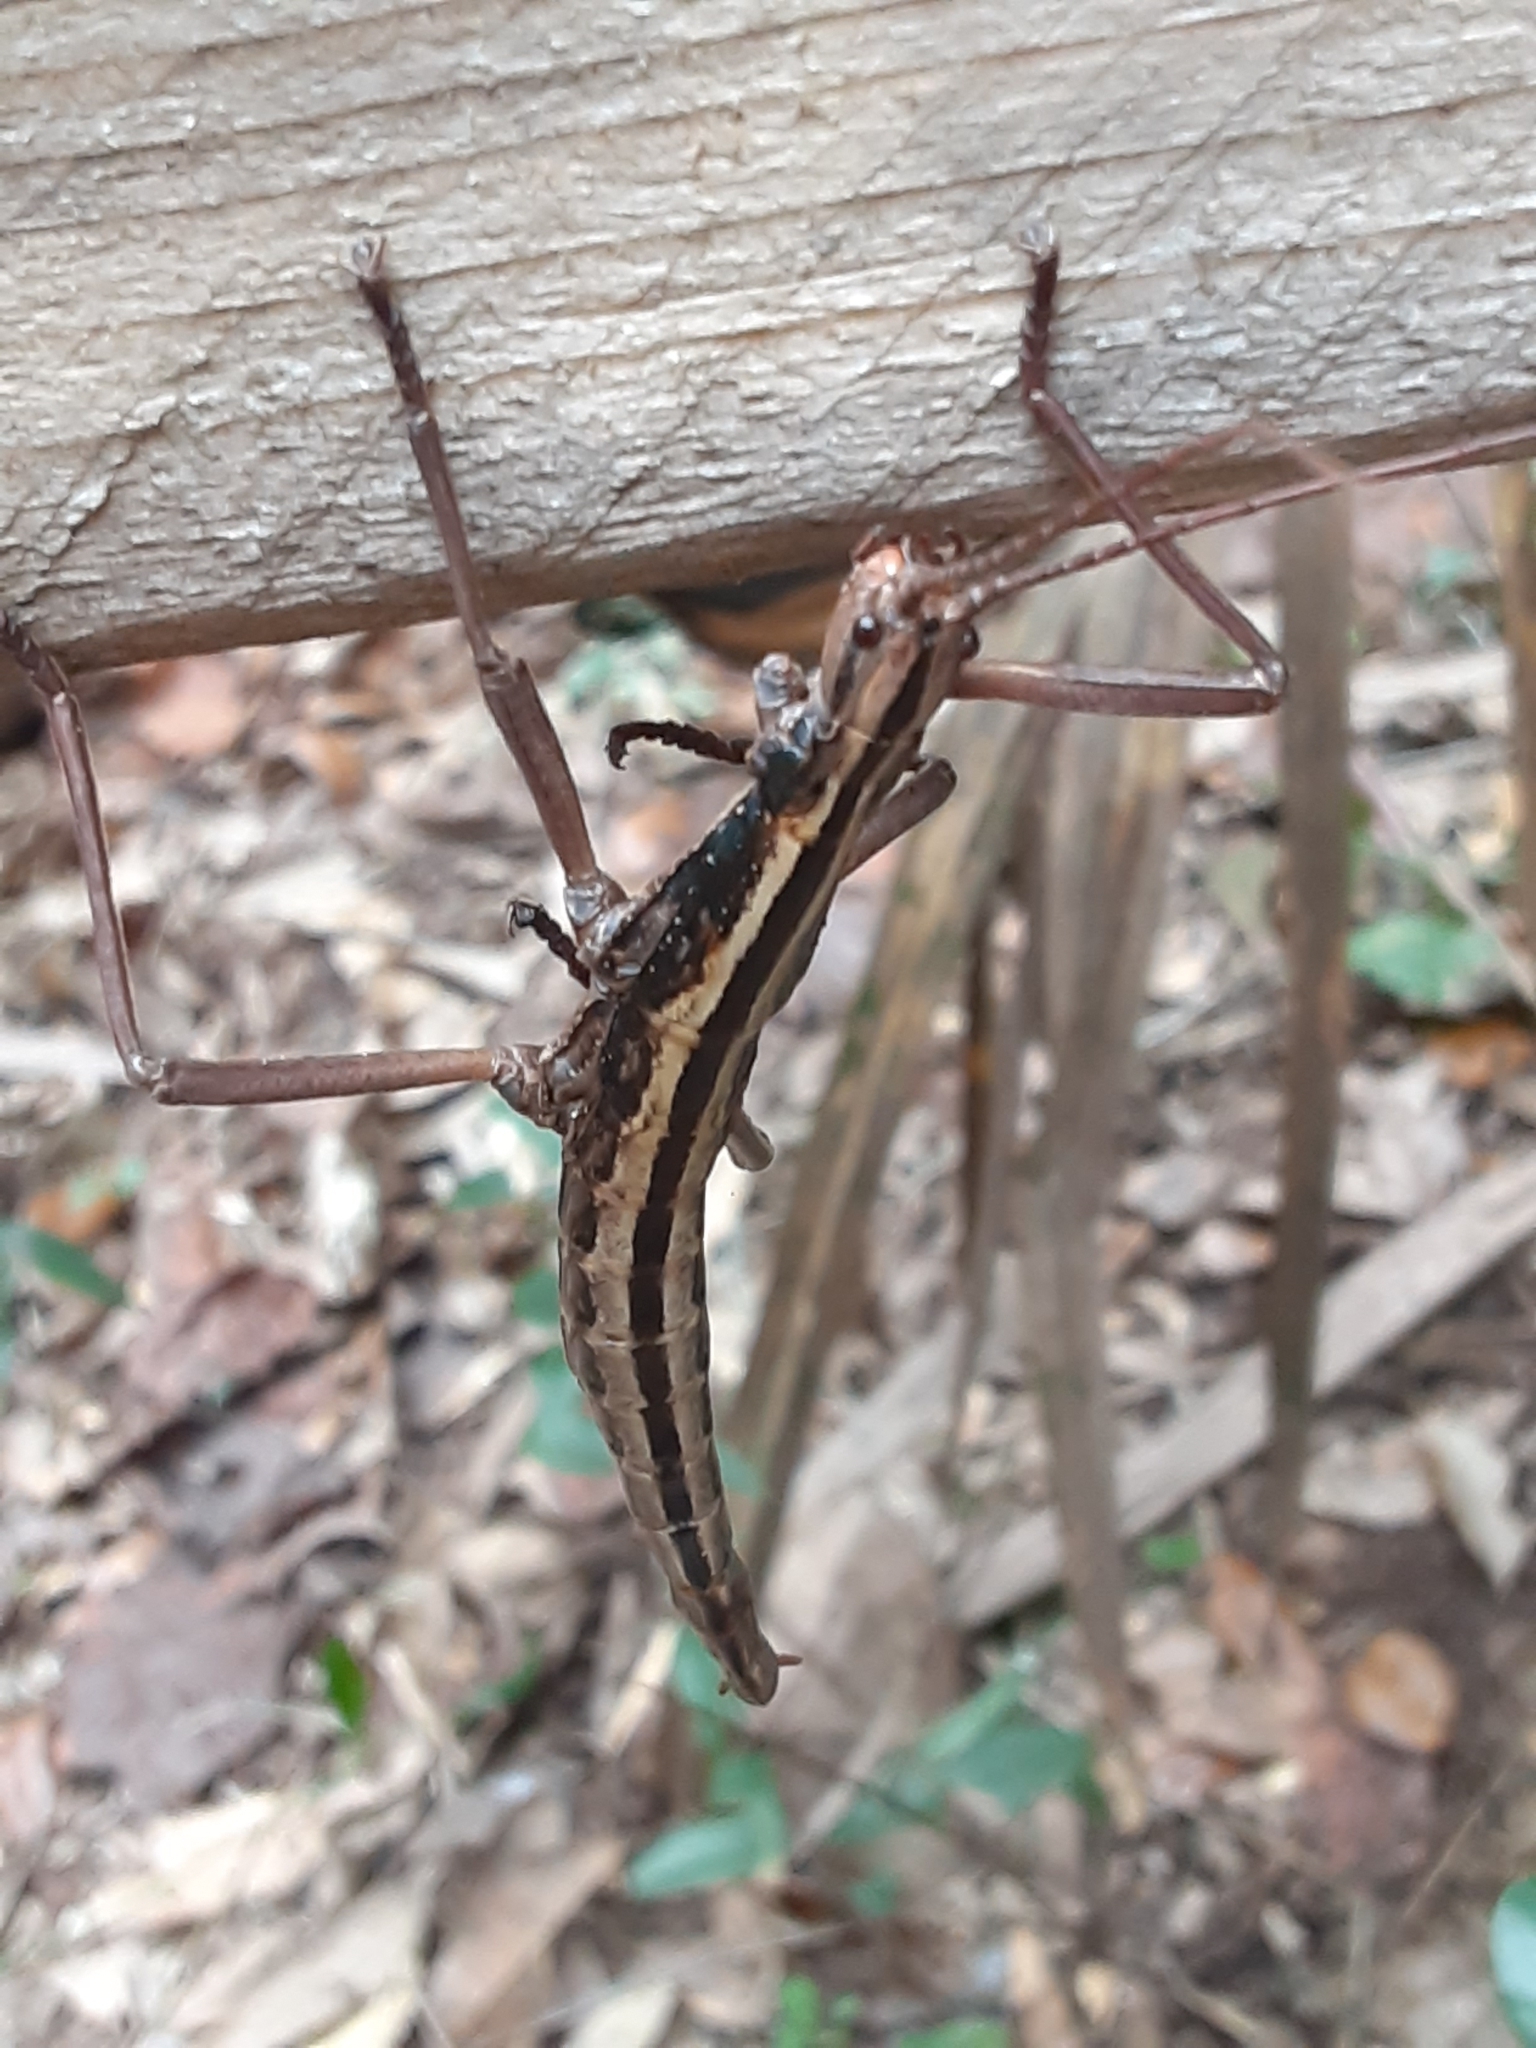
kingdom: Animalia
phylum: Arthropoda
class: Insecta
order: Phasmida
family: Pseudophasmatidae
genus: Anisomorpha
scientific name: Anisomorpha buprestoides
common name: Florida stick insect
